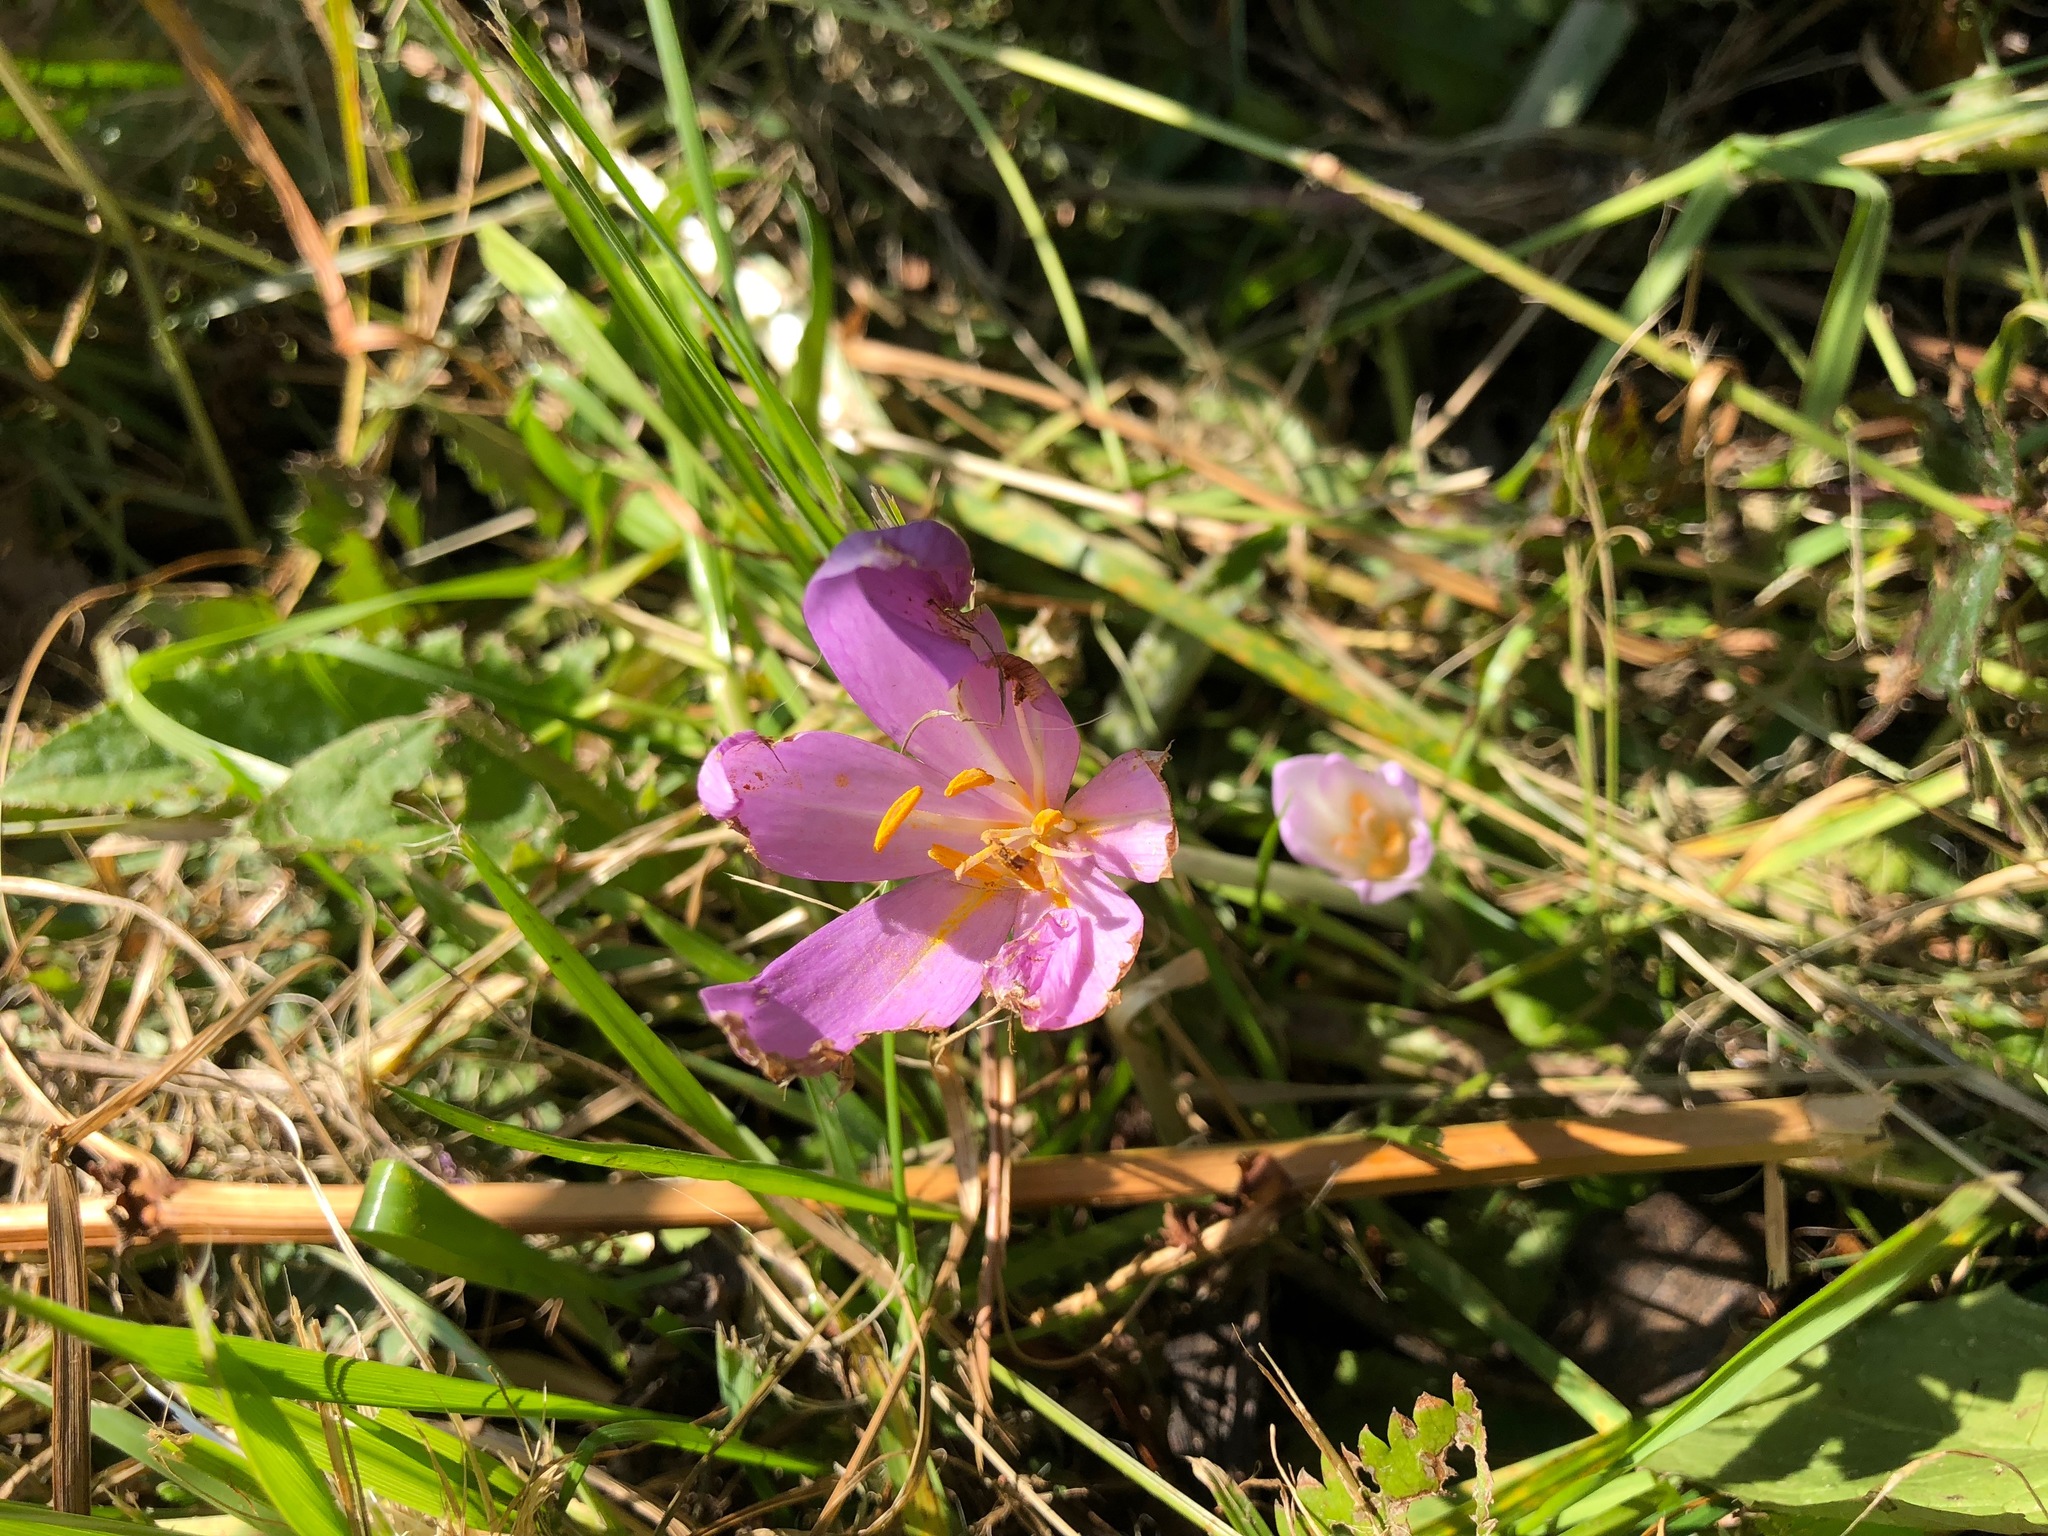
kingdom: Plantae
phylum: Tracheophyta
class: Liliopsida
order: Liliales
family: Colchicaceae
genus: Colchicum
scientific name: Colchicum autumnale
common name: Autumn crocus
